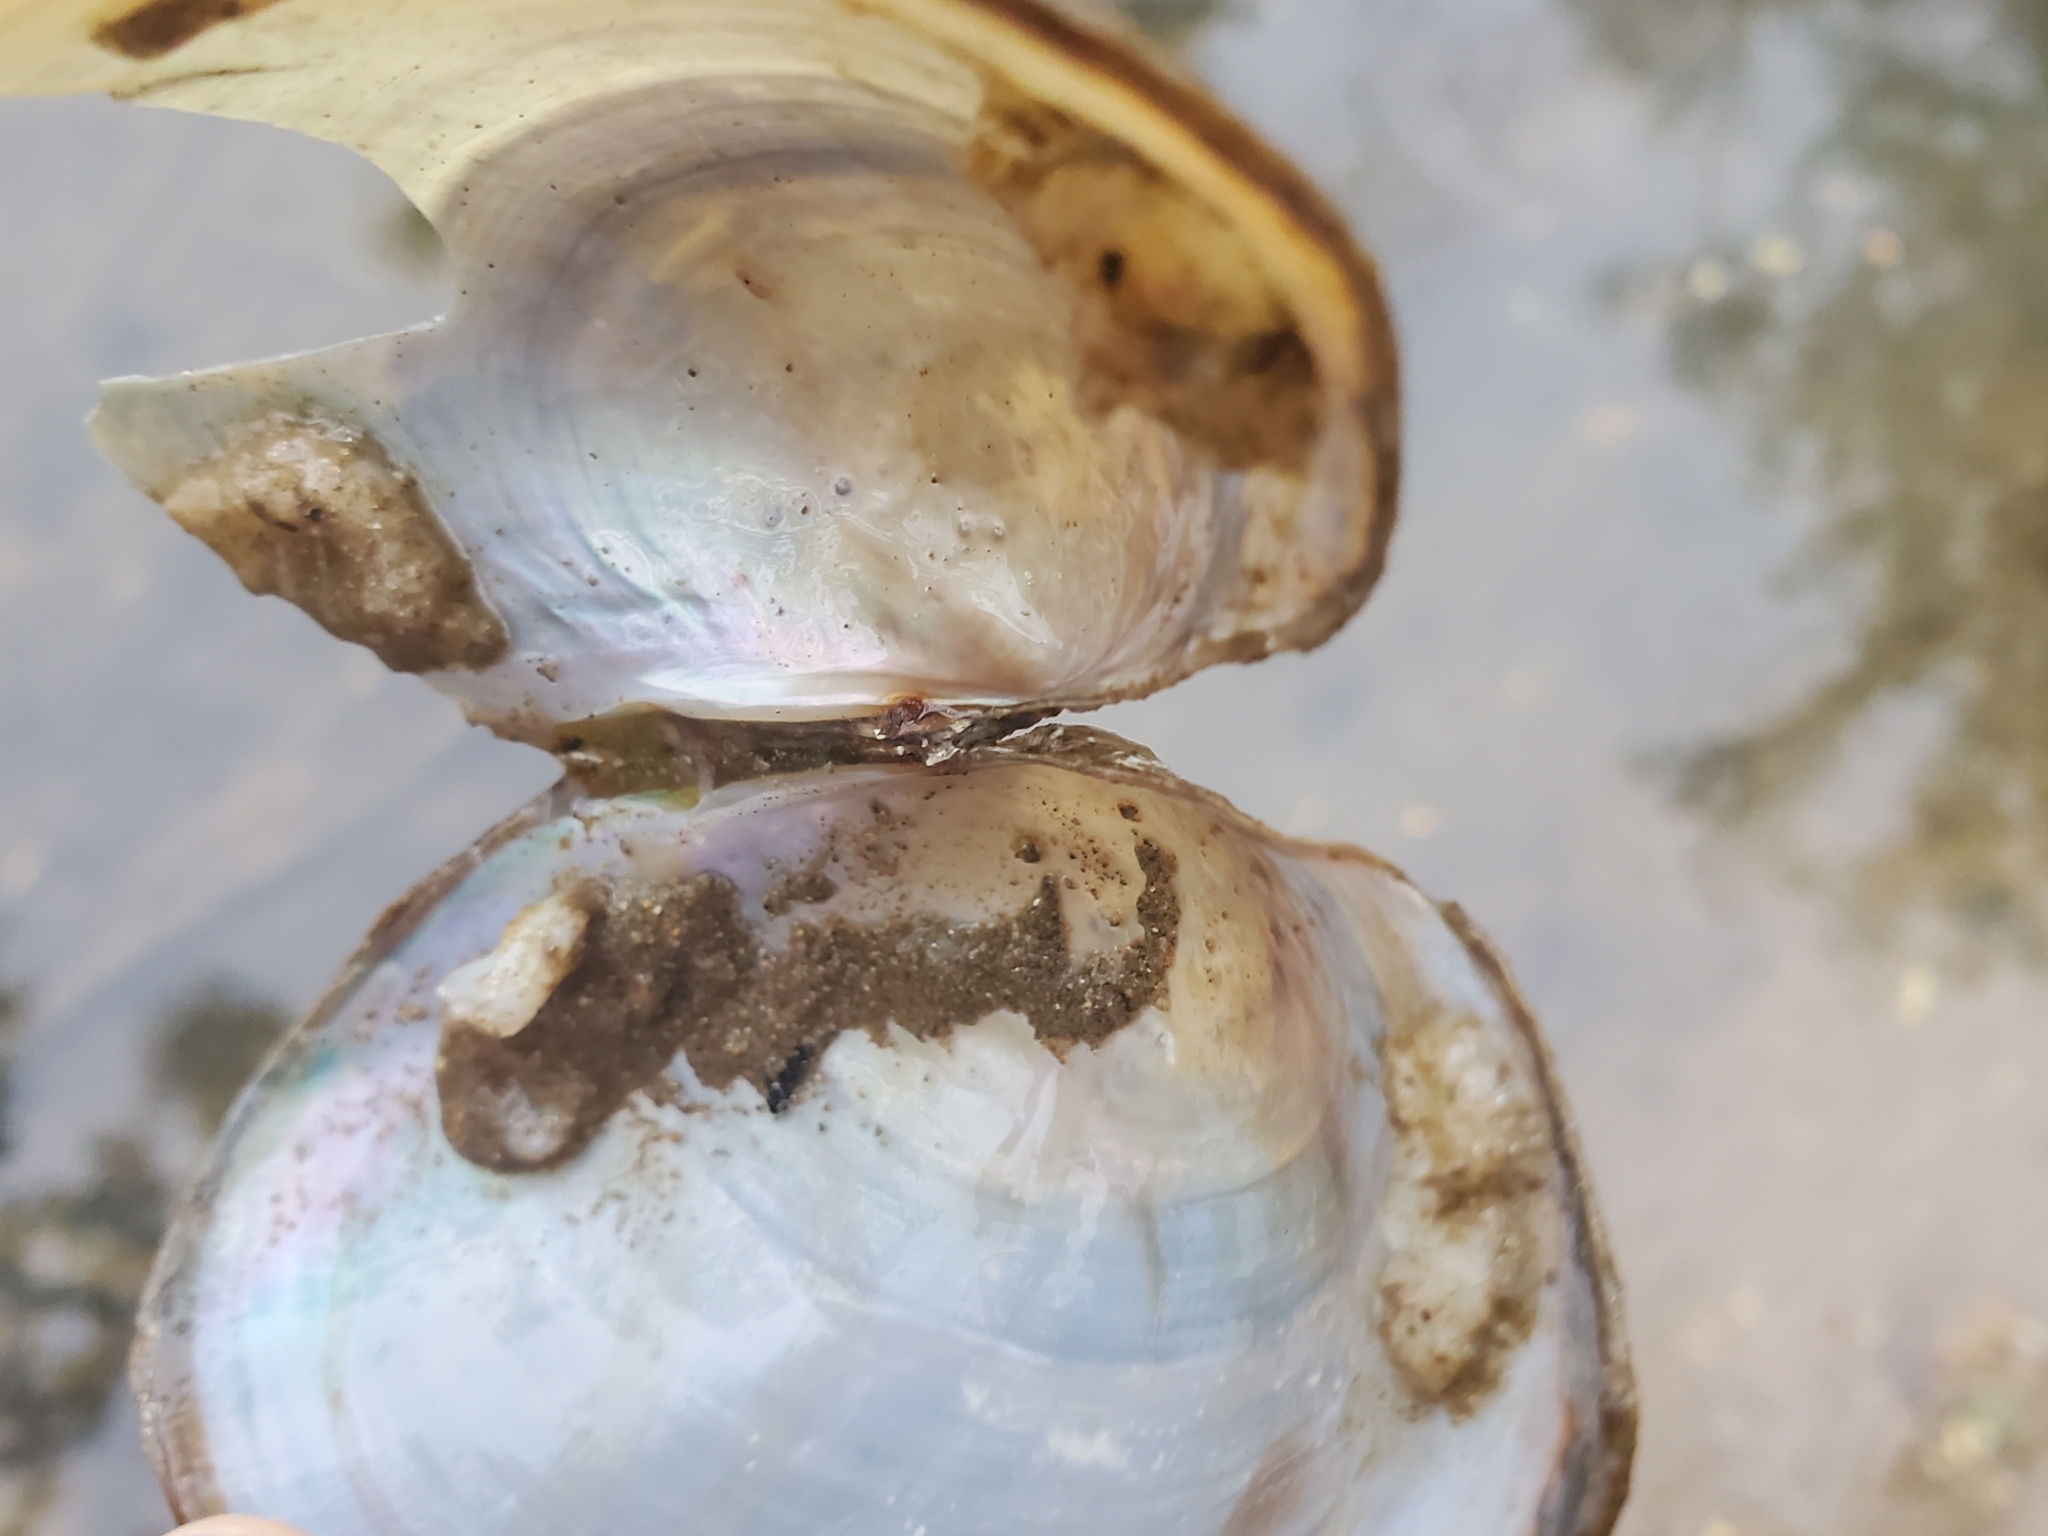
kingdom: Animalia
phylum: Mollusca
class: Bivalvia
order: Unionida
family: Unionidae
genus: Pyganodon
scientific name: Pyganodon cataracta
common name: Eastern floater
